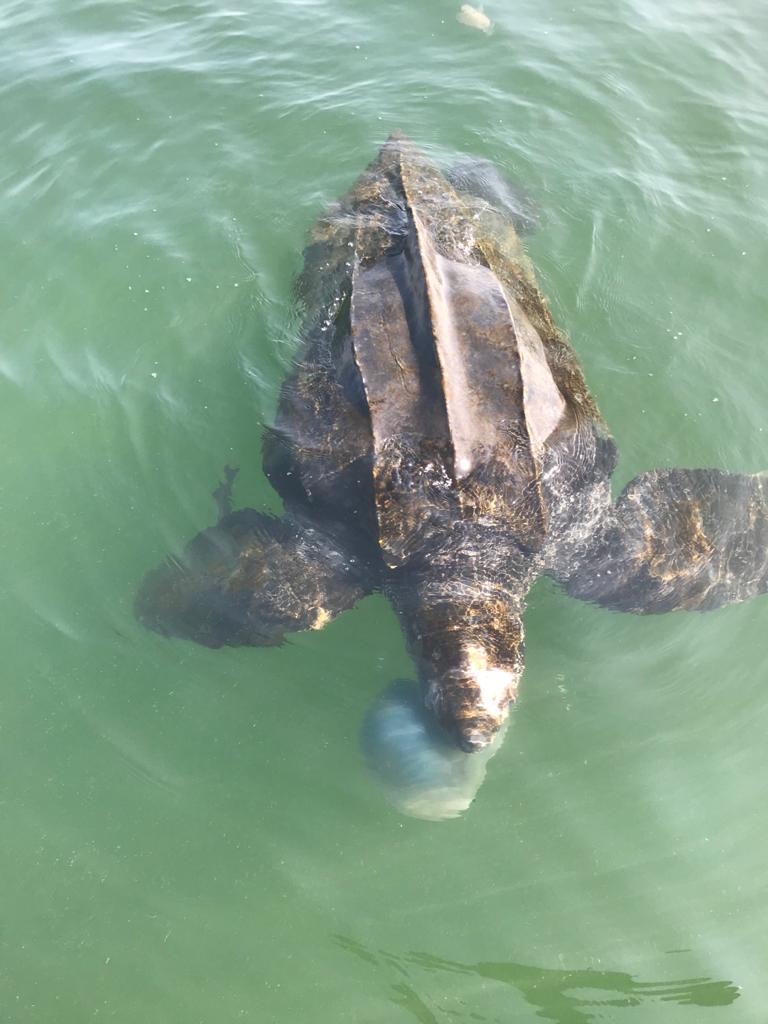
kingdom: Animalia
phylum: Chordata
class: Testudines
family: Dermochelyidae
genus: Dermochelys
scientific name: Dermochelys coriacea
